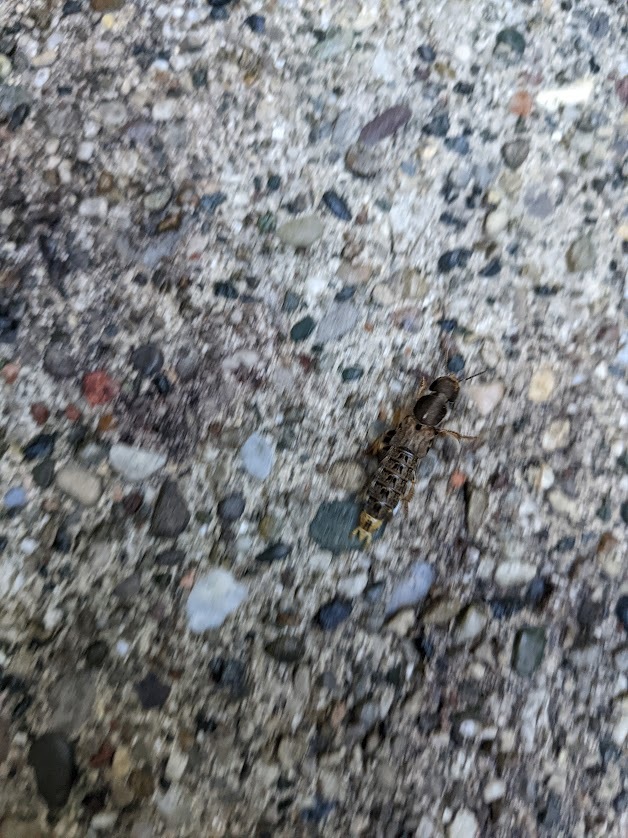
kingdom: Animalia
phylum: Arthropoda
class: Insecta
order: Coleoptera
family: Staphylinidae
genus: Platydracus
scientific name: Platydracus maculosus
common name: Brown rove beetle
